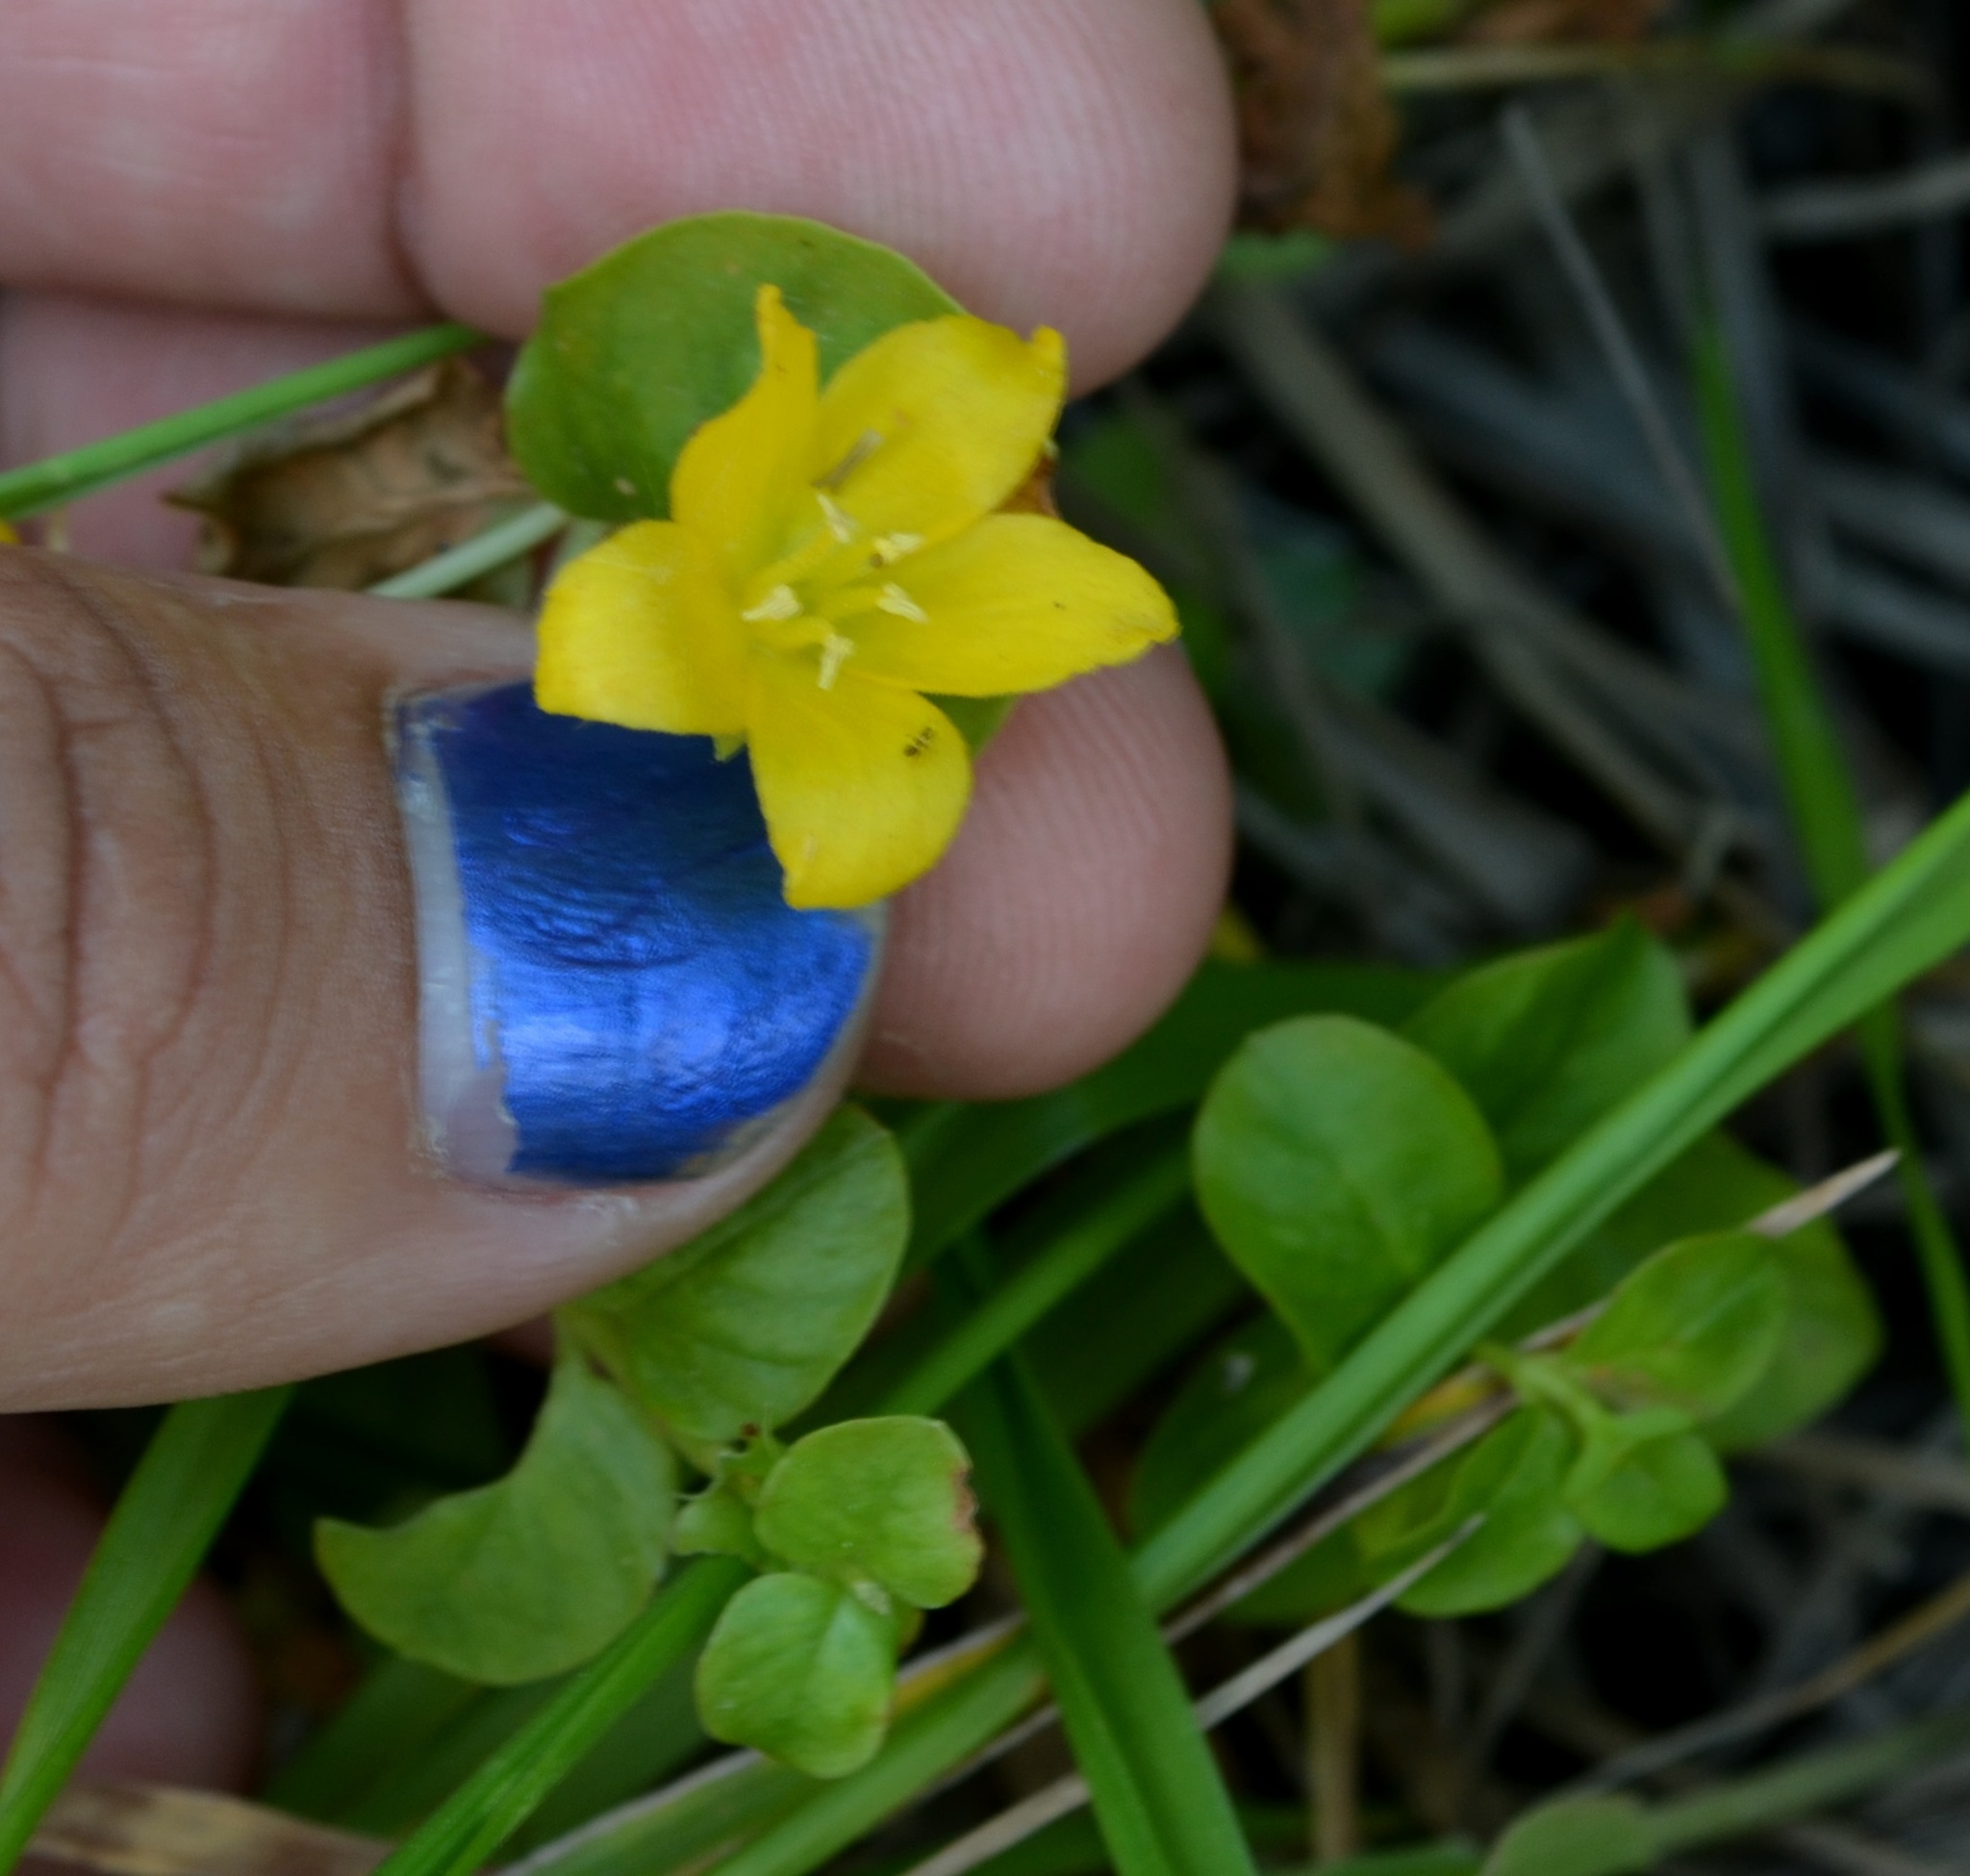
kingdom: Plantae
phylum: Tracheophyta
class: Magnoliopsida
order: Ericales
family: Primulaceae
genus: Lysimachia
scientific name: Lysimachia nummularia
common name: Moneywort
